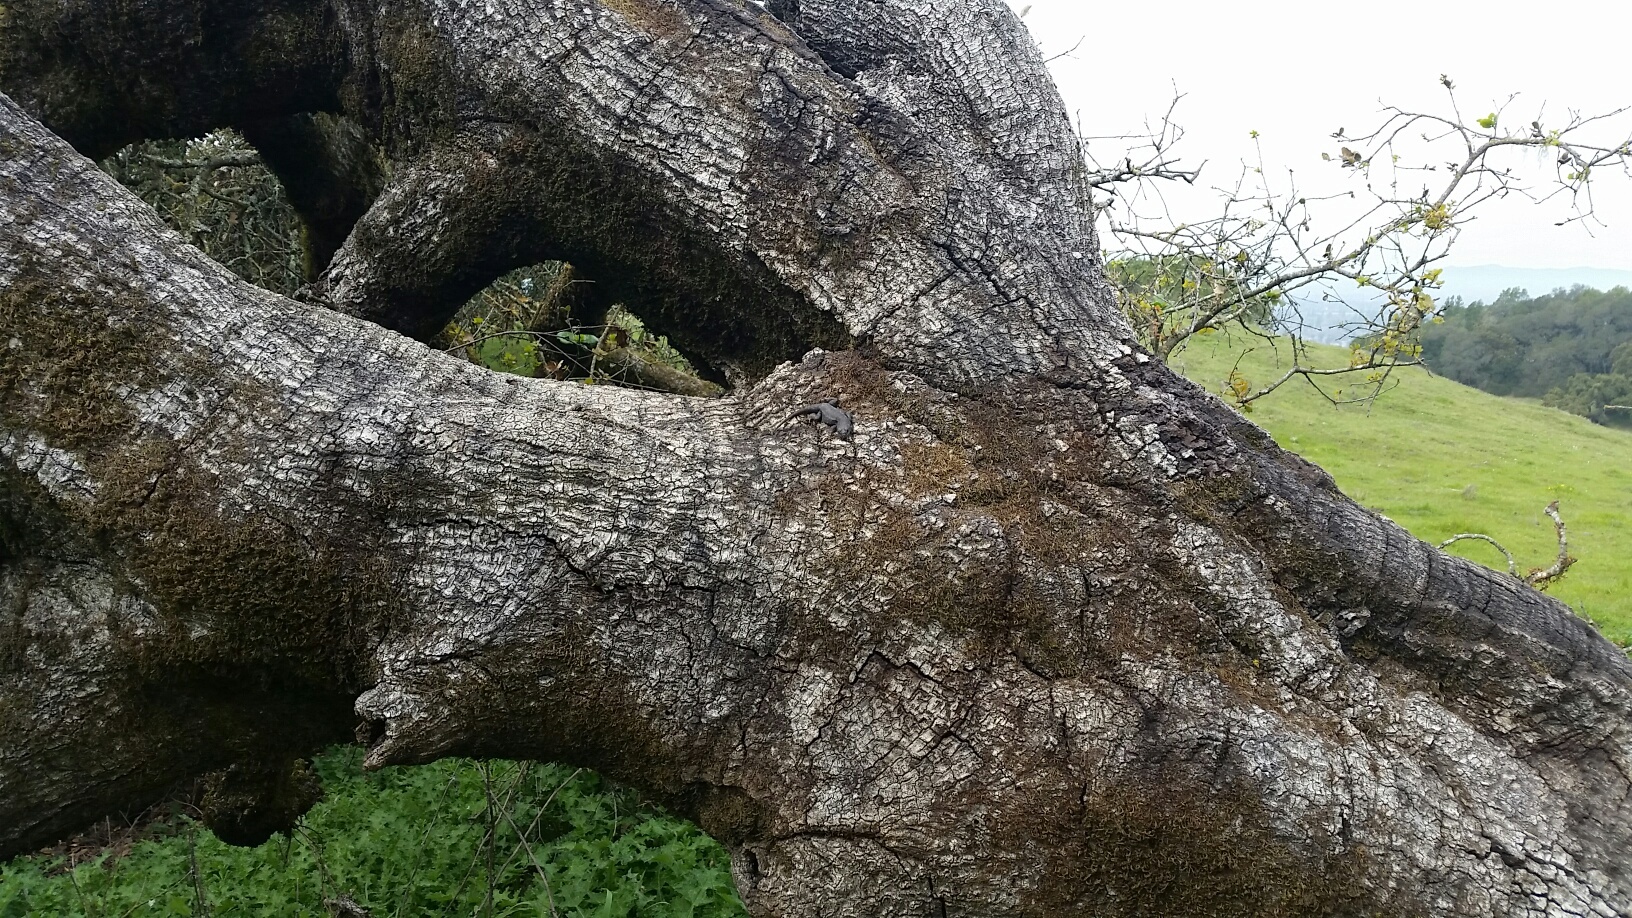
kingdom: Animalia
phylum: Chordata
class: Squamata
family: Phrynosomatidae
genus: Sceloporus
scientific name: Sceloporus occidentalis
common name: Western fence lizard
